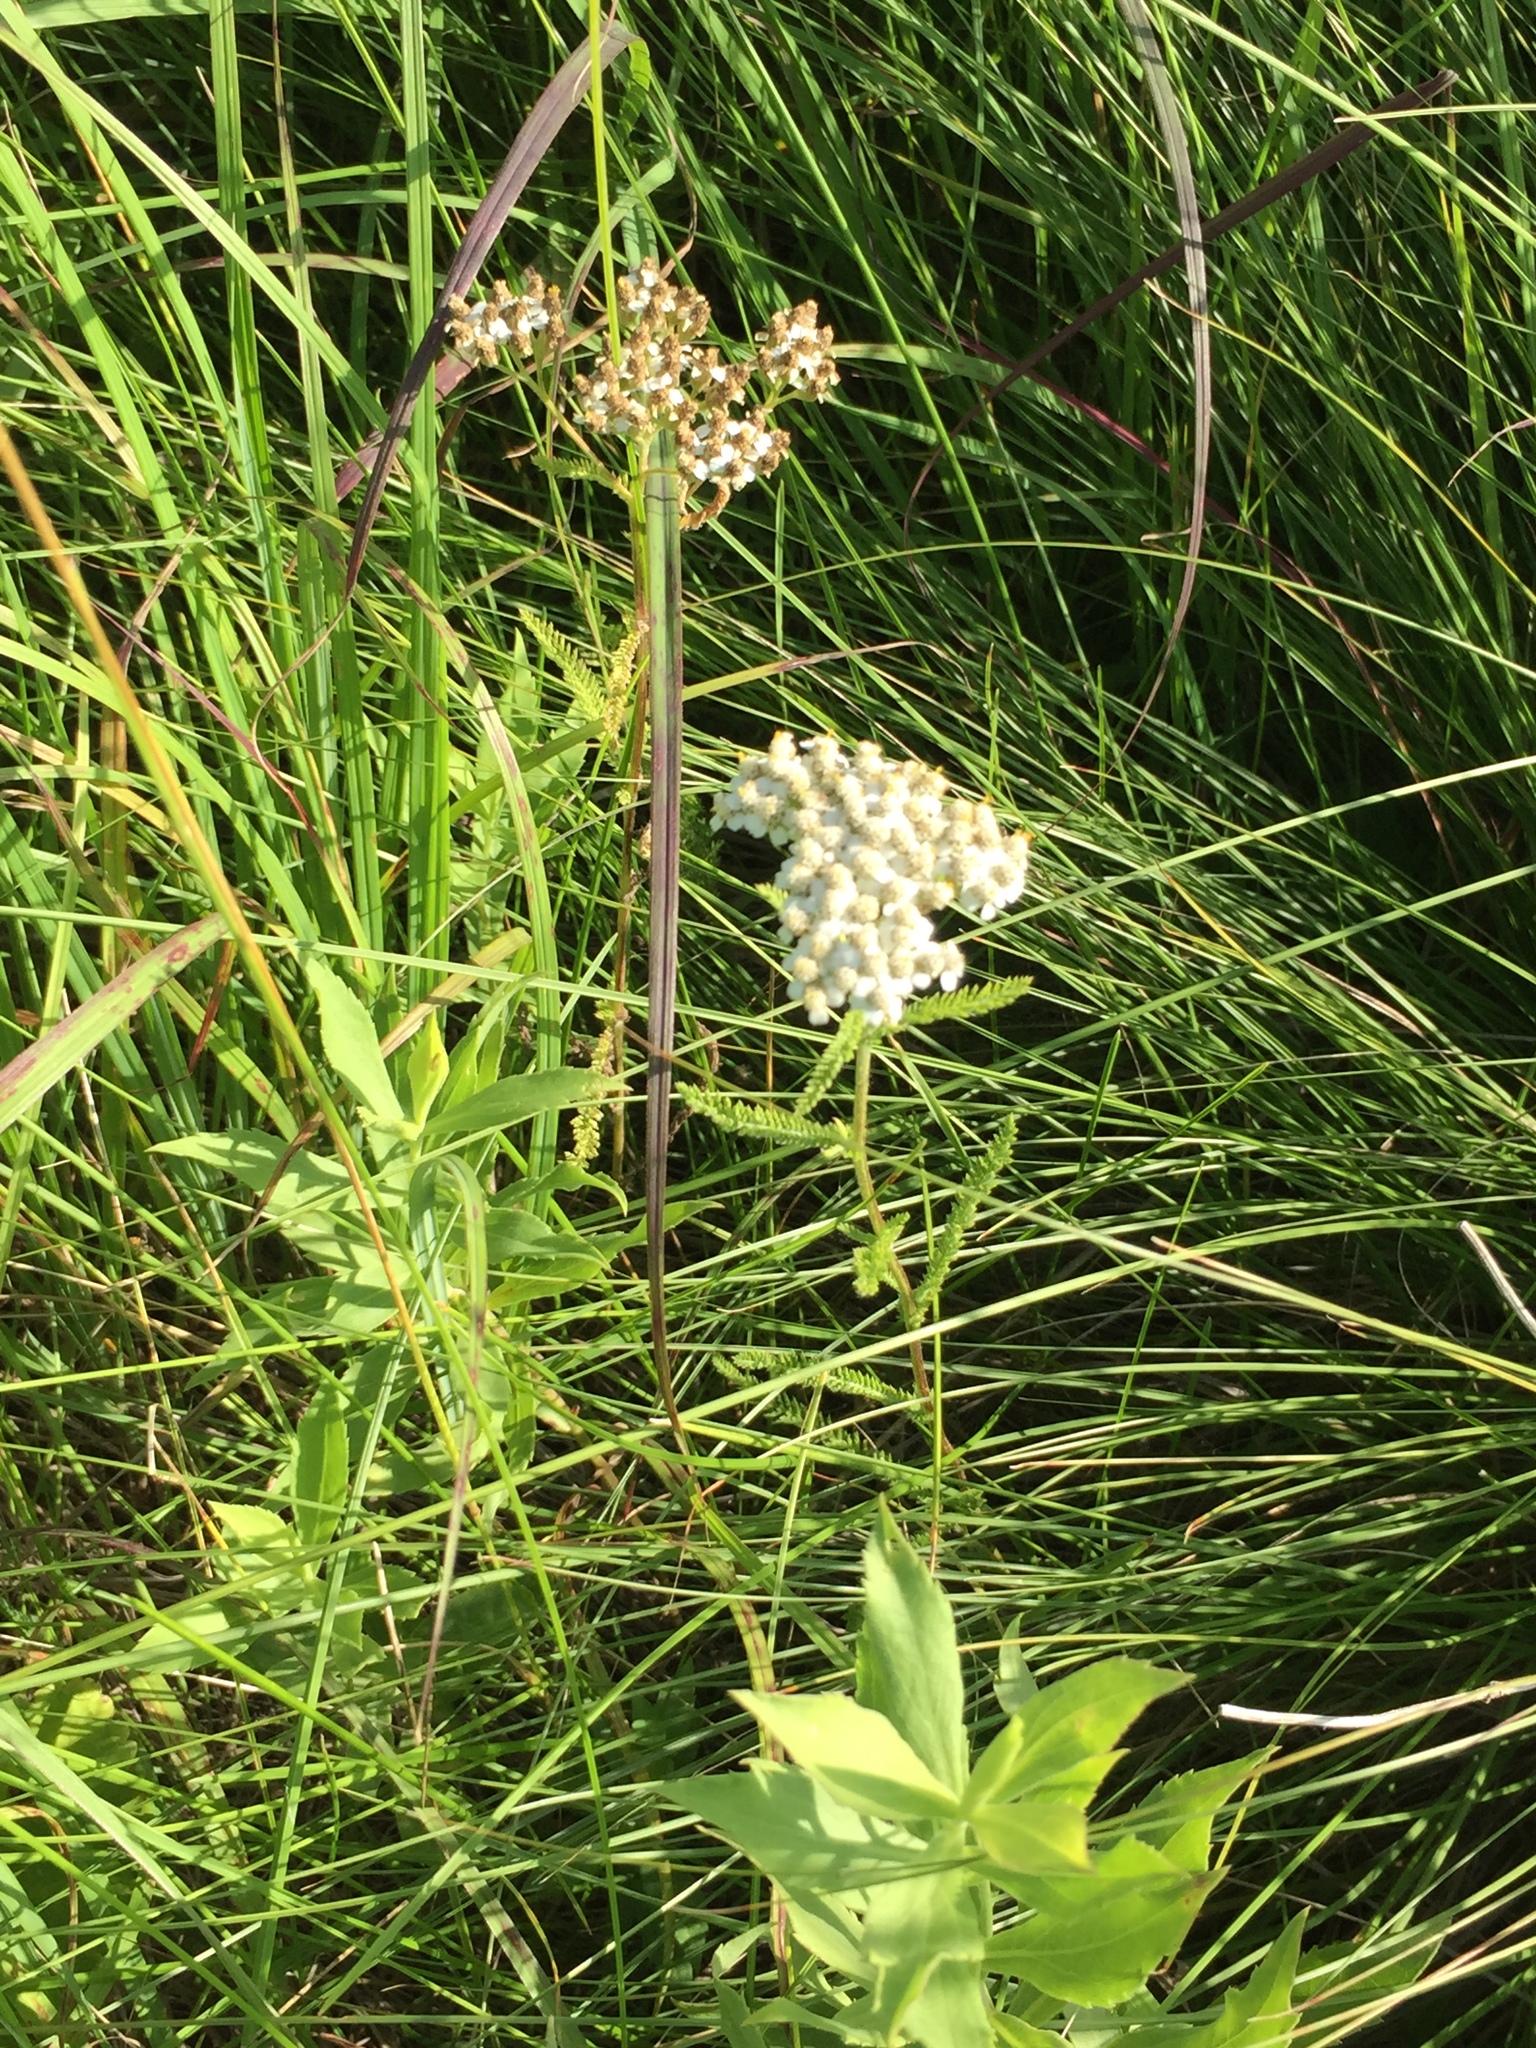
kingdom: Plantae
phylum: Tracheophyta
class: Magnoliopsida
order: Asterales
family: Asteraceae
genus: Achillea
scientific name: Achillea millefolium
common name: Yarrow
